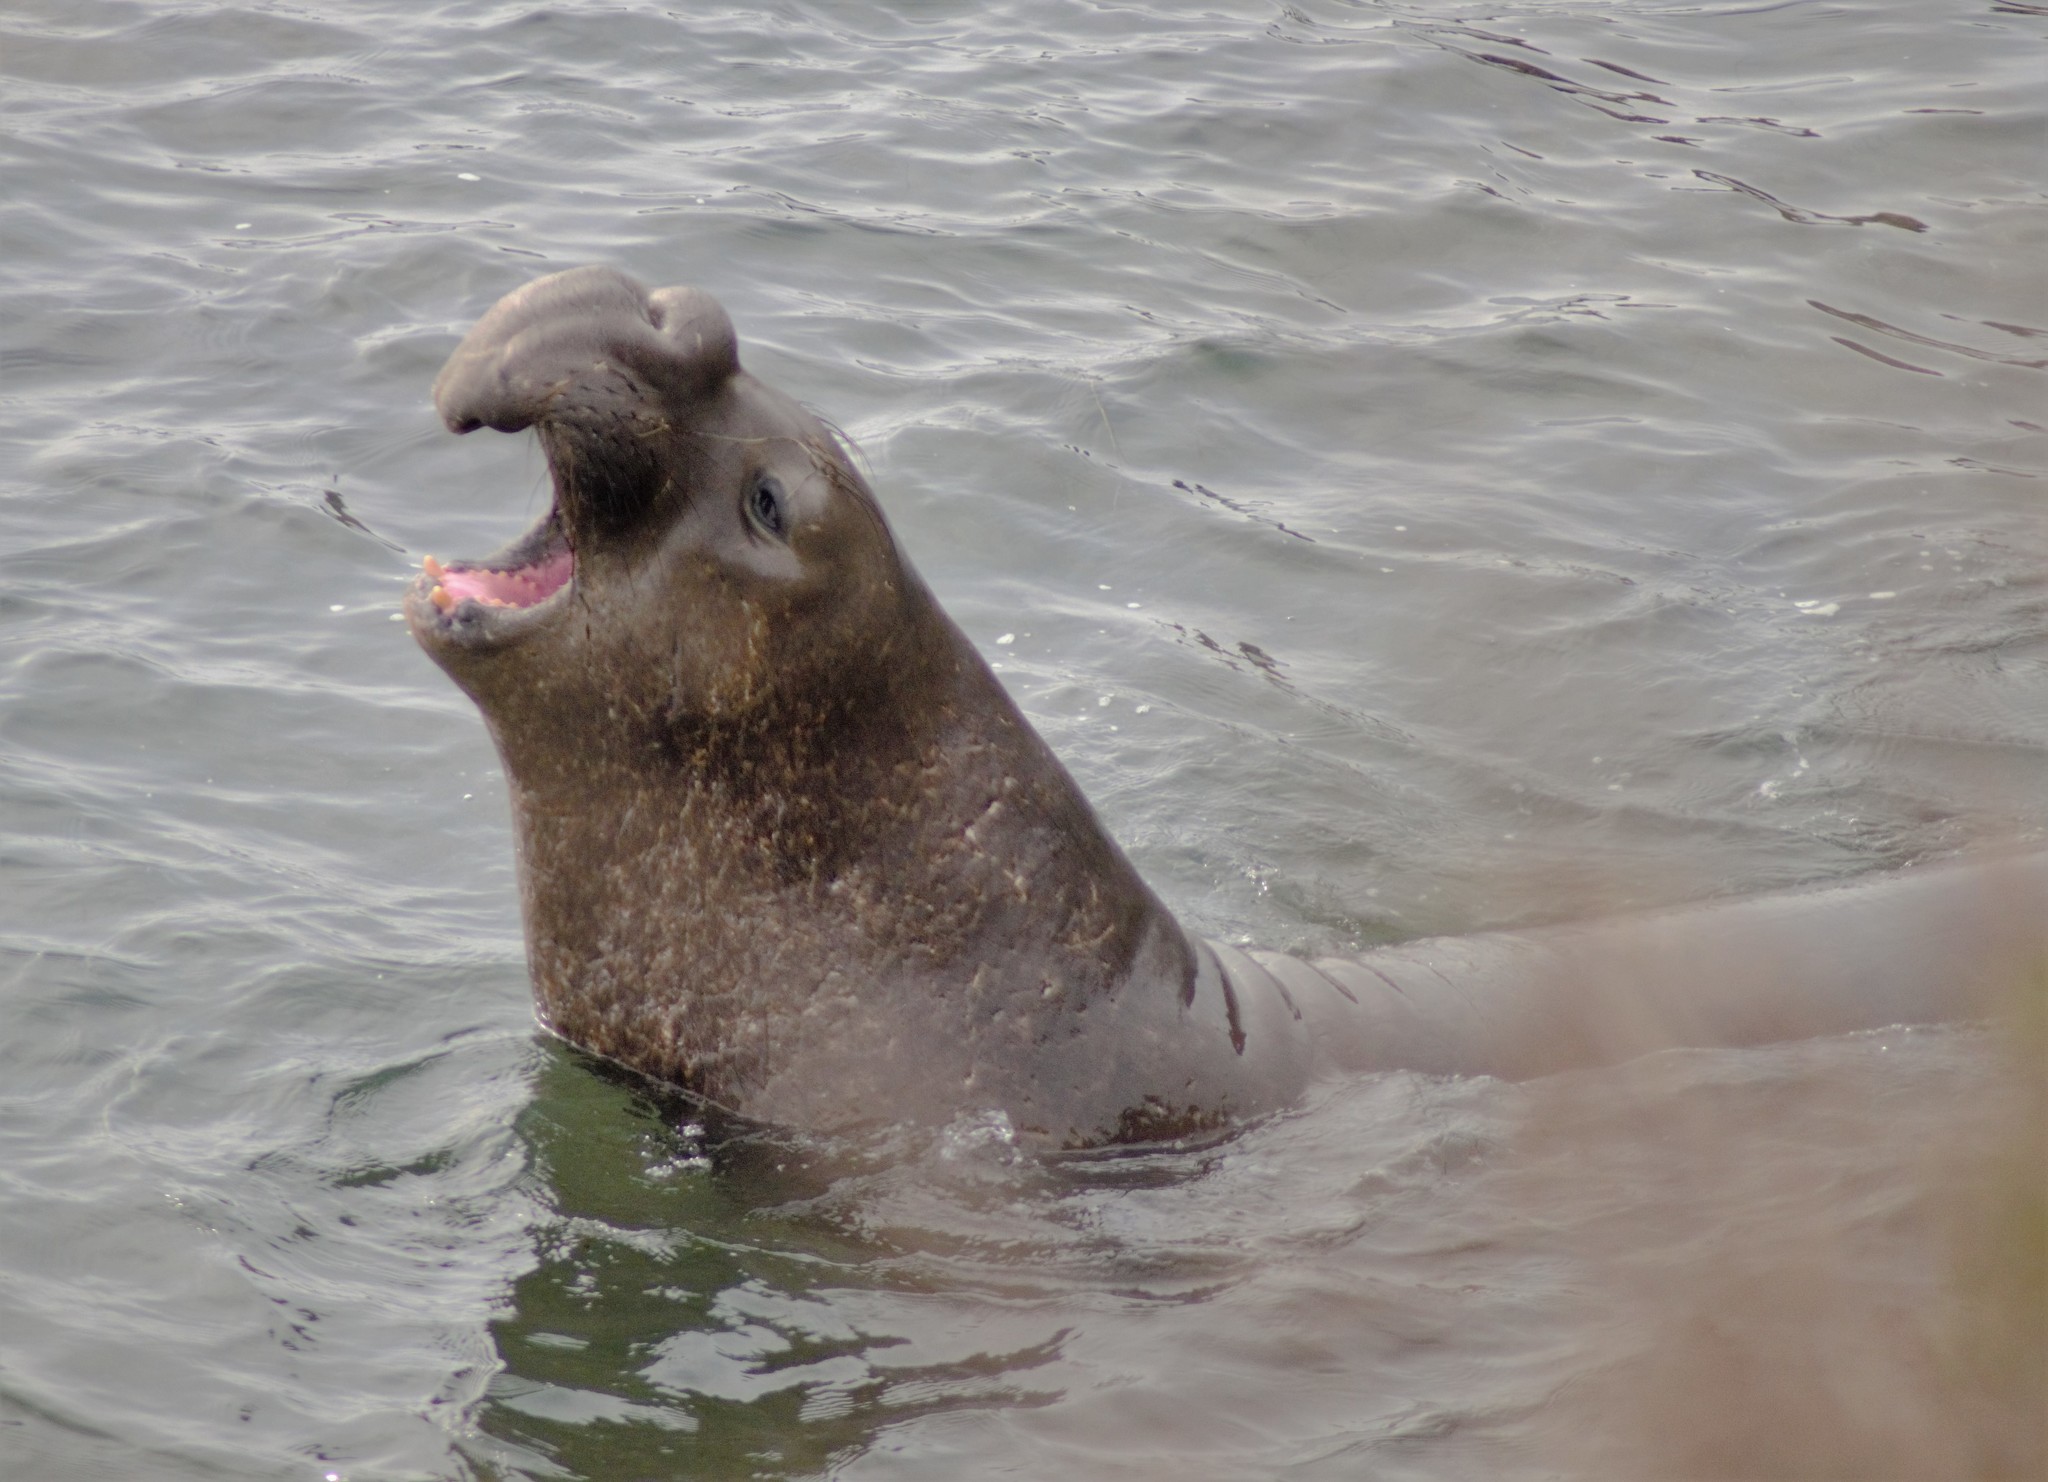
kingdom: Animalia
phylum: Chordata
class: Mammalia
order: Carnivora
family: Phocidae
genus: Mirounga
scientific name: Mirounga angustirostris
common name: Northern elephant seal
